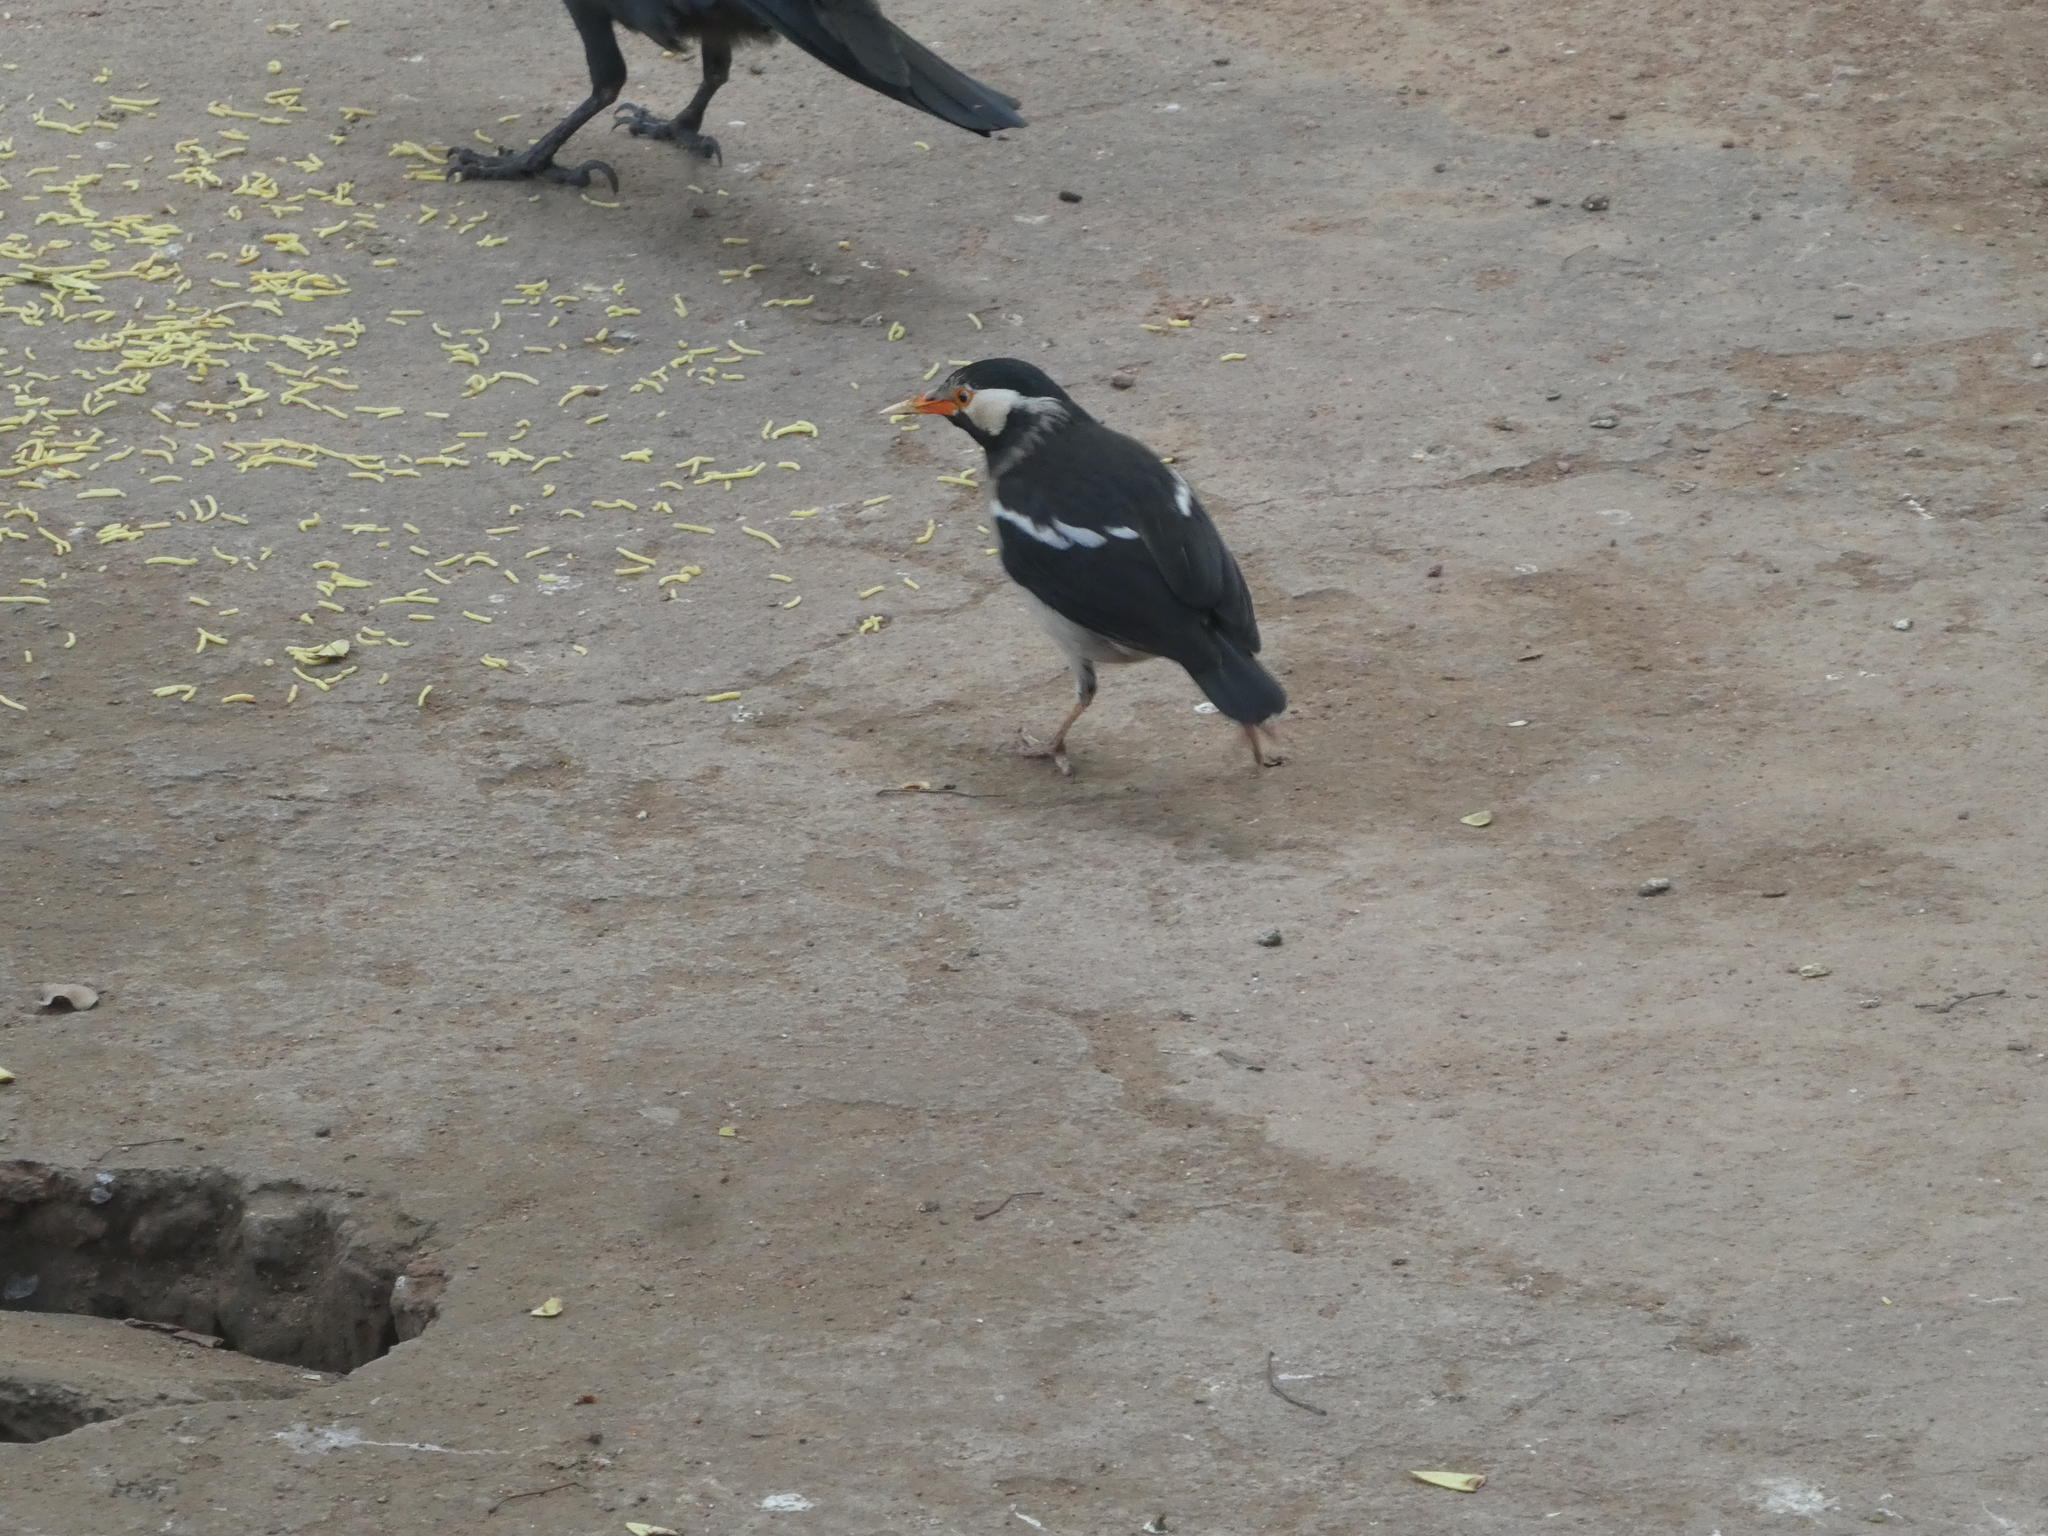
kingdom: Animalia
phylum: Chordata
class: Aves
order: Passeriformes
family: Sturnidae
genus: Gracupica
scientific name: Gracupica contra
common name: Pied myna
